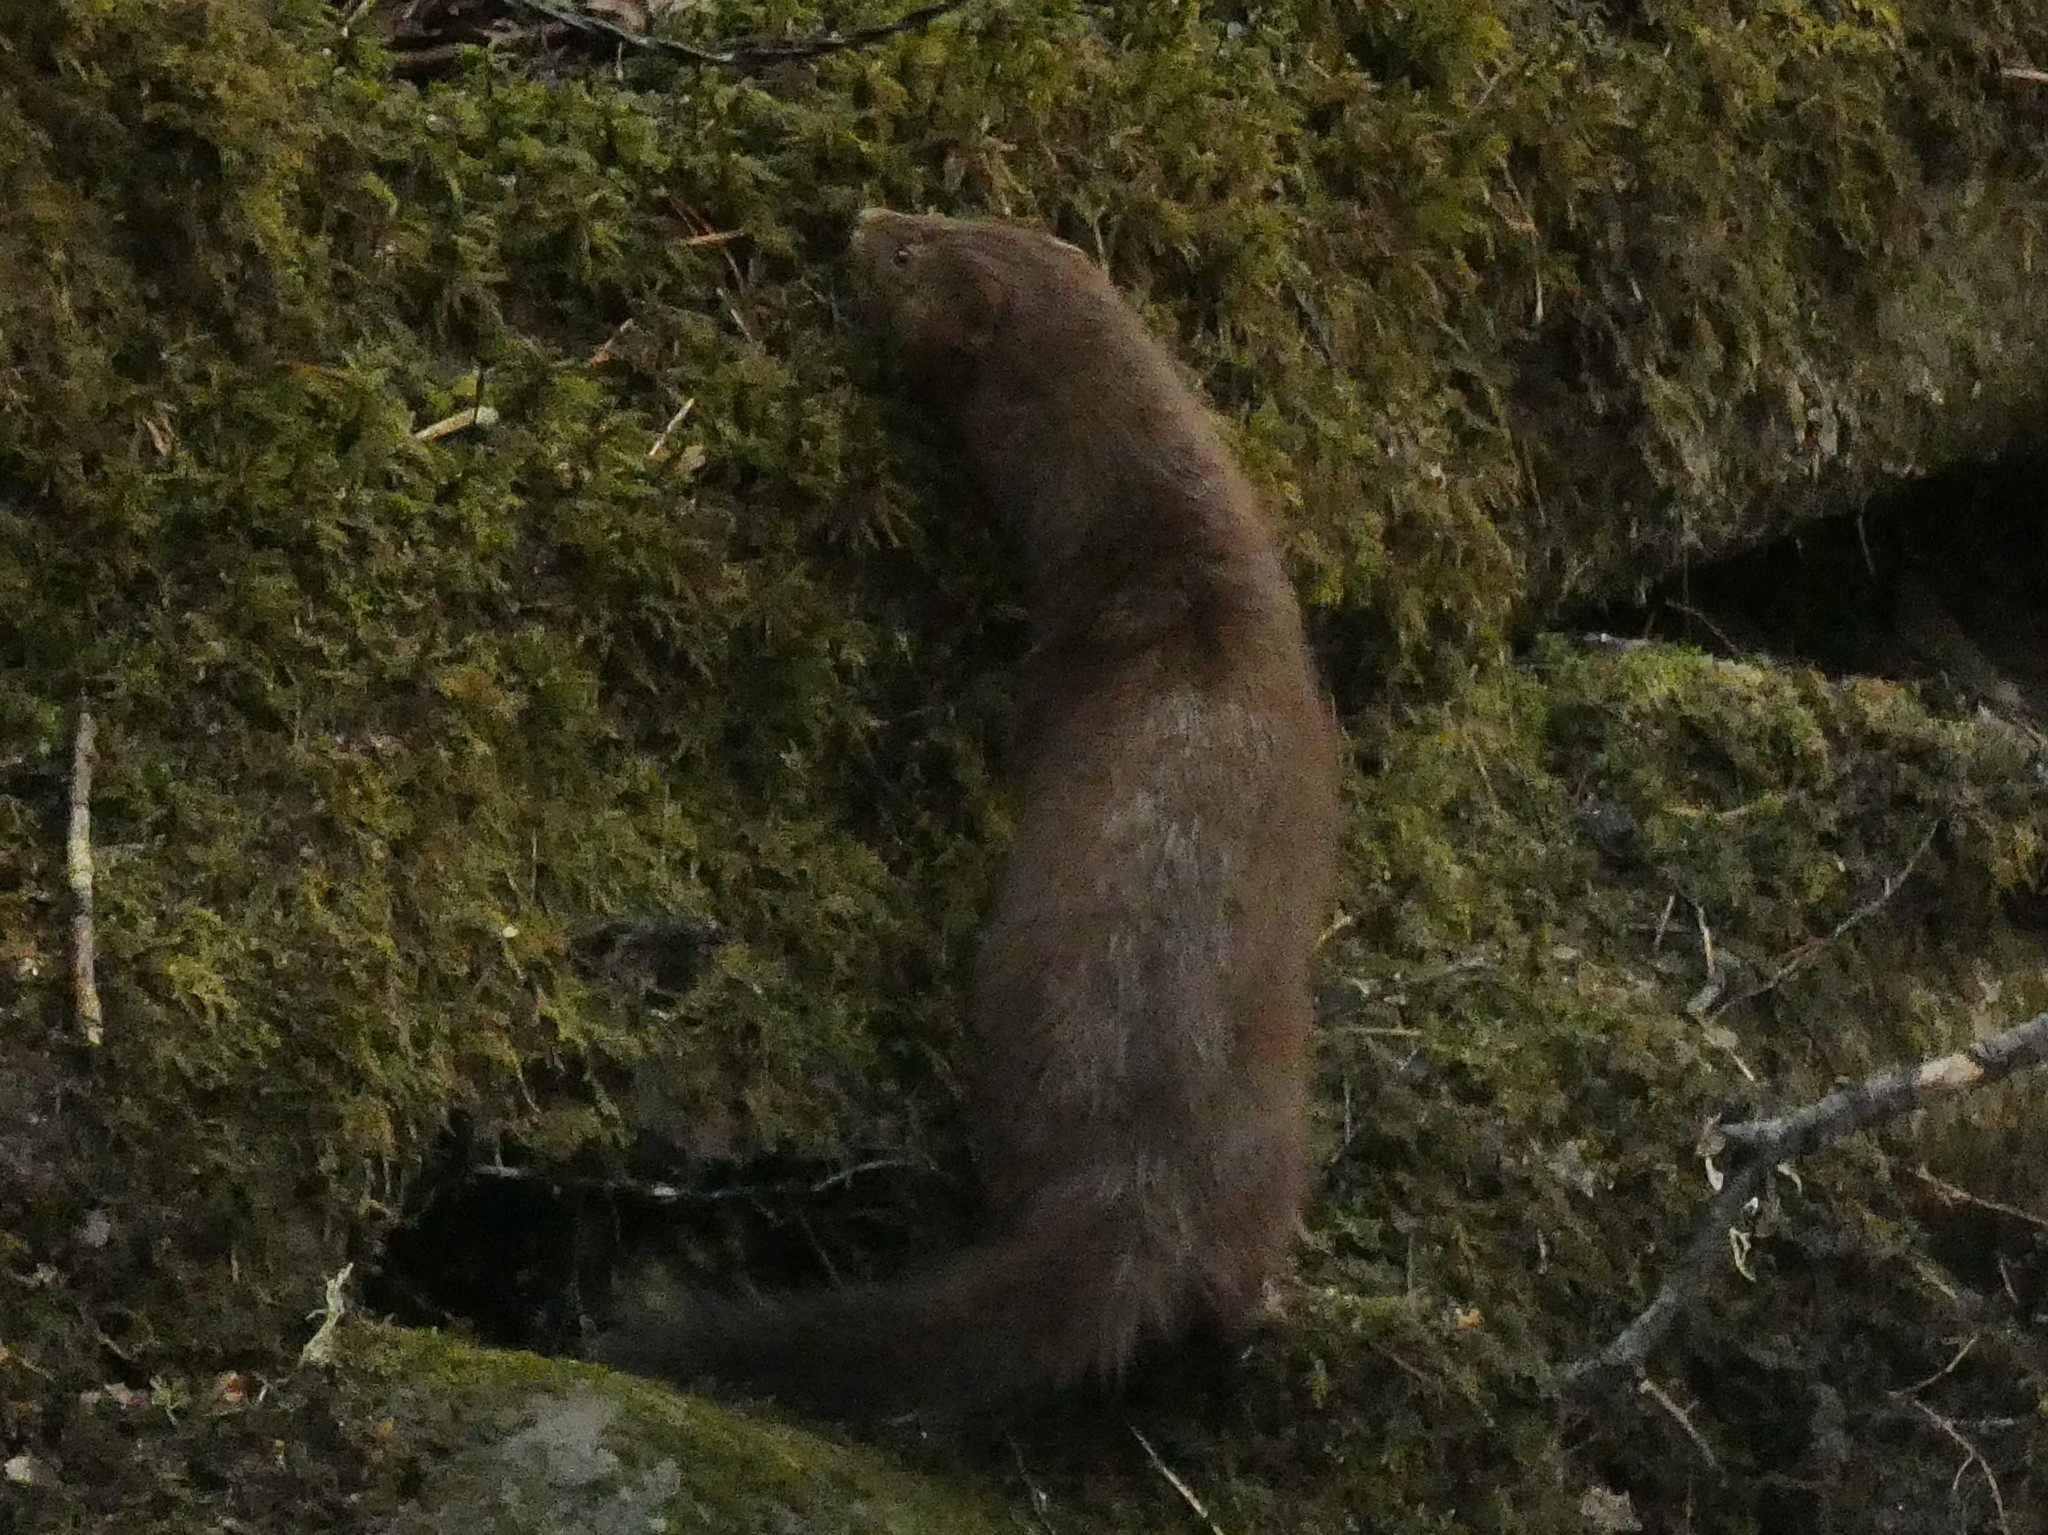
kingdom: Animalia
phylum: Chordata
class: Mammalia
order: Carnivora
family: Mustelidae
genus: Mustela
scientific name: Mustela
